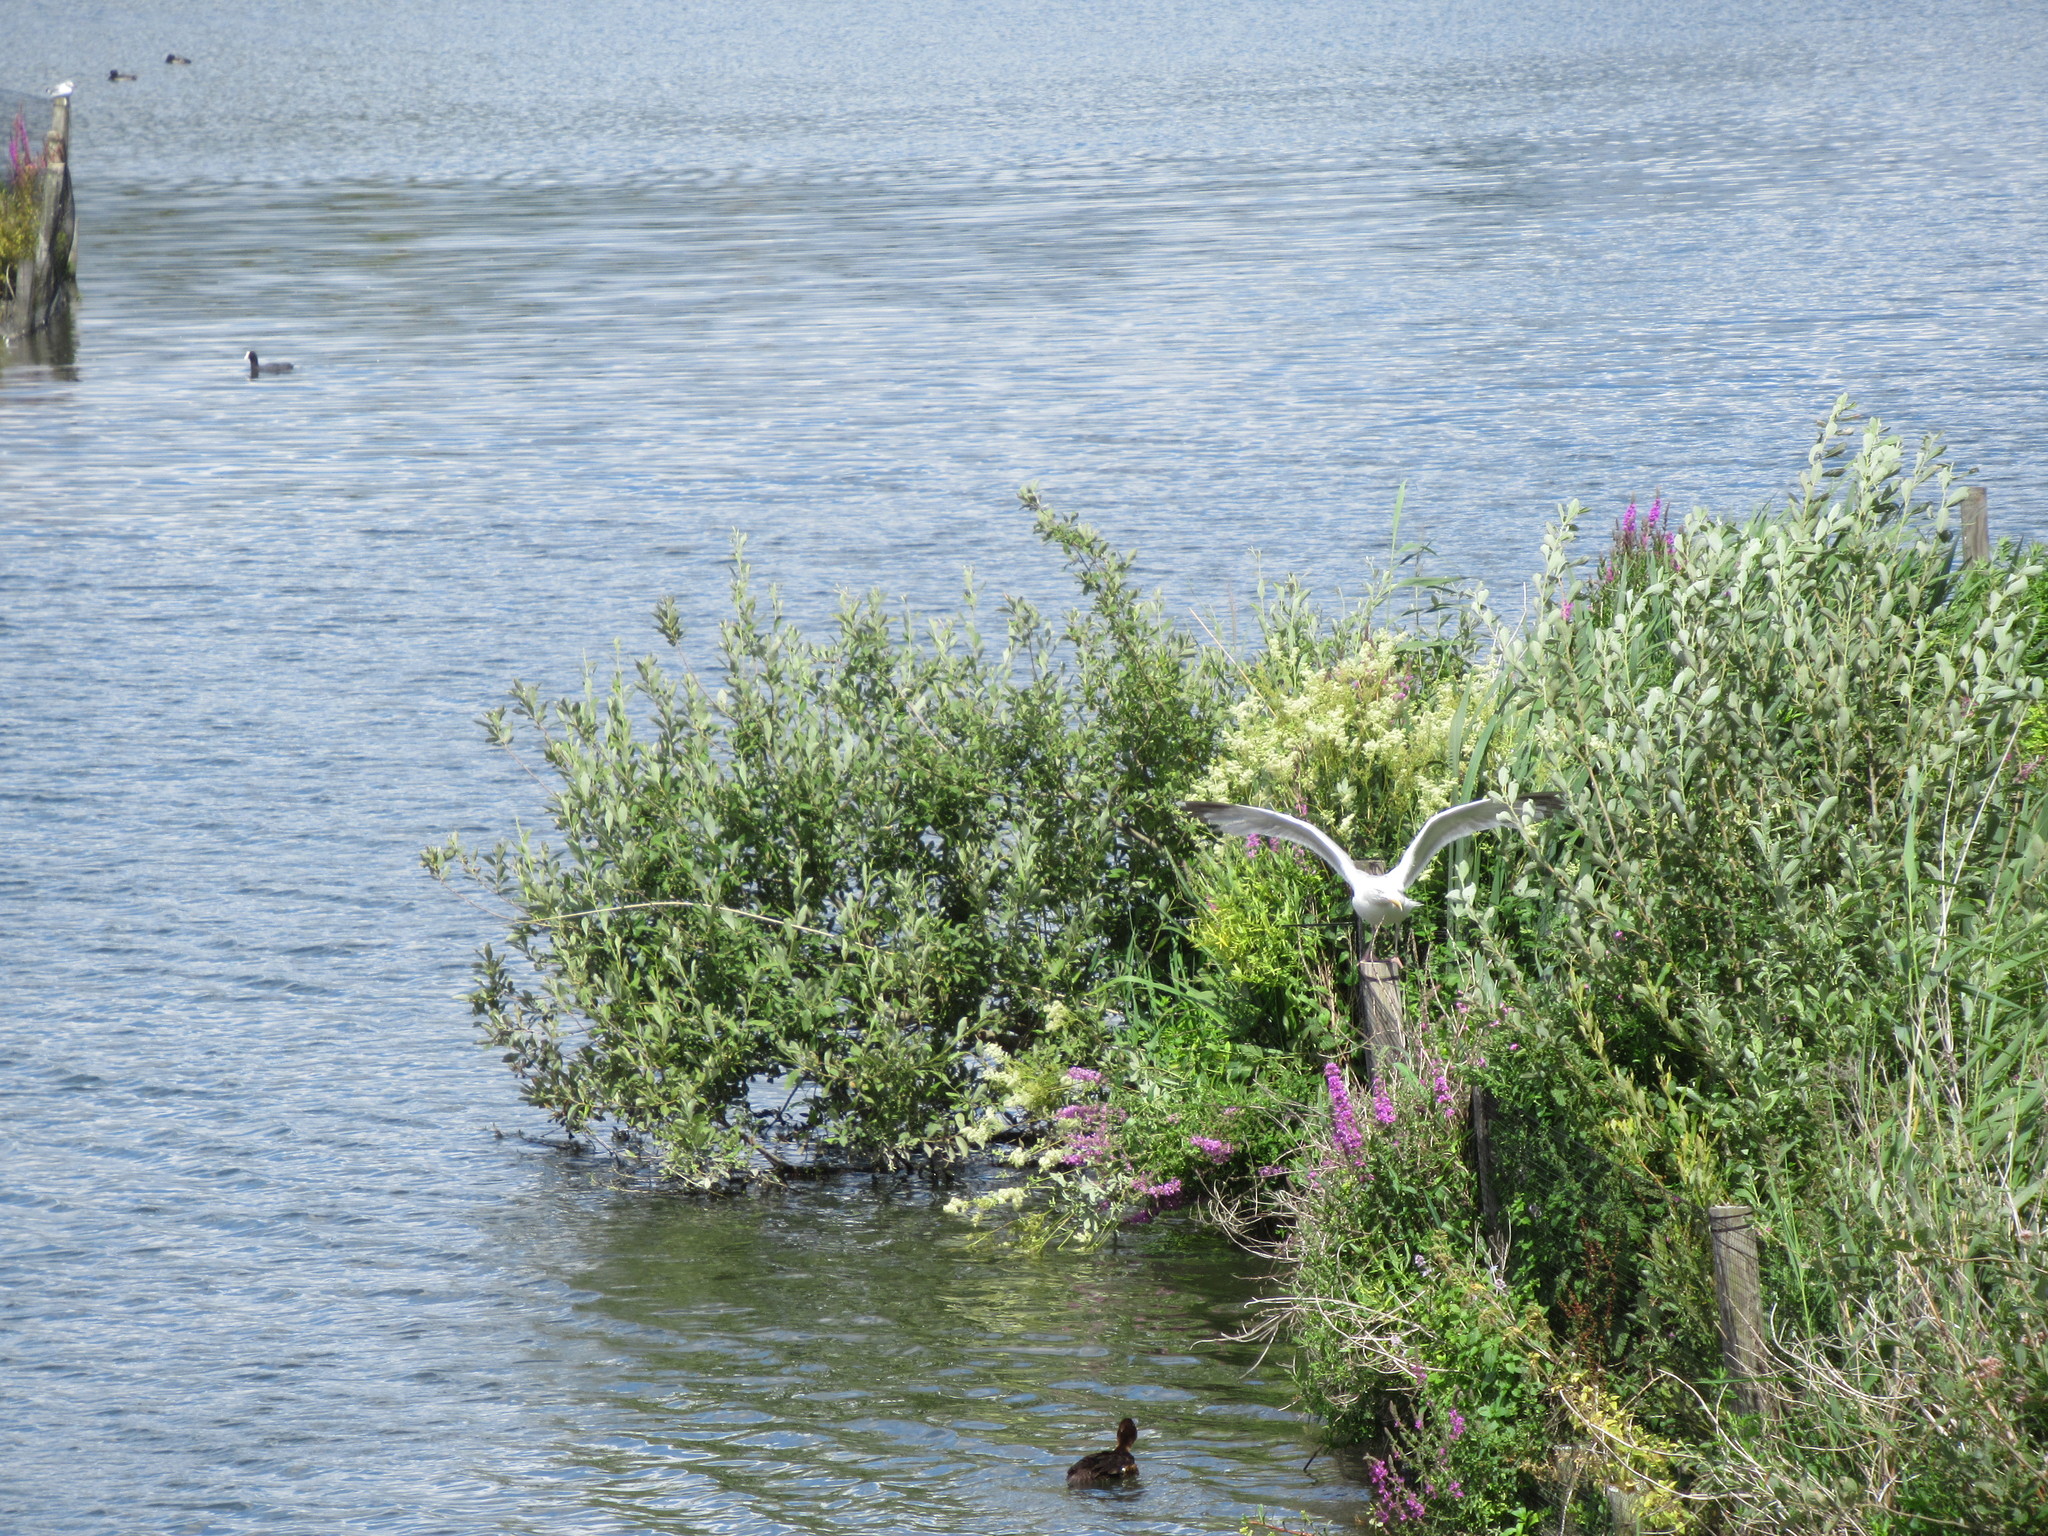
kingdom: Animalia
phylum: Chordata
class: Aves
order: Charadriiformes
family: Laridae
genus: Larus
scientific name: Larus argentatus
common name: Herring gull
